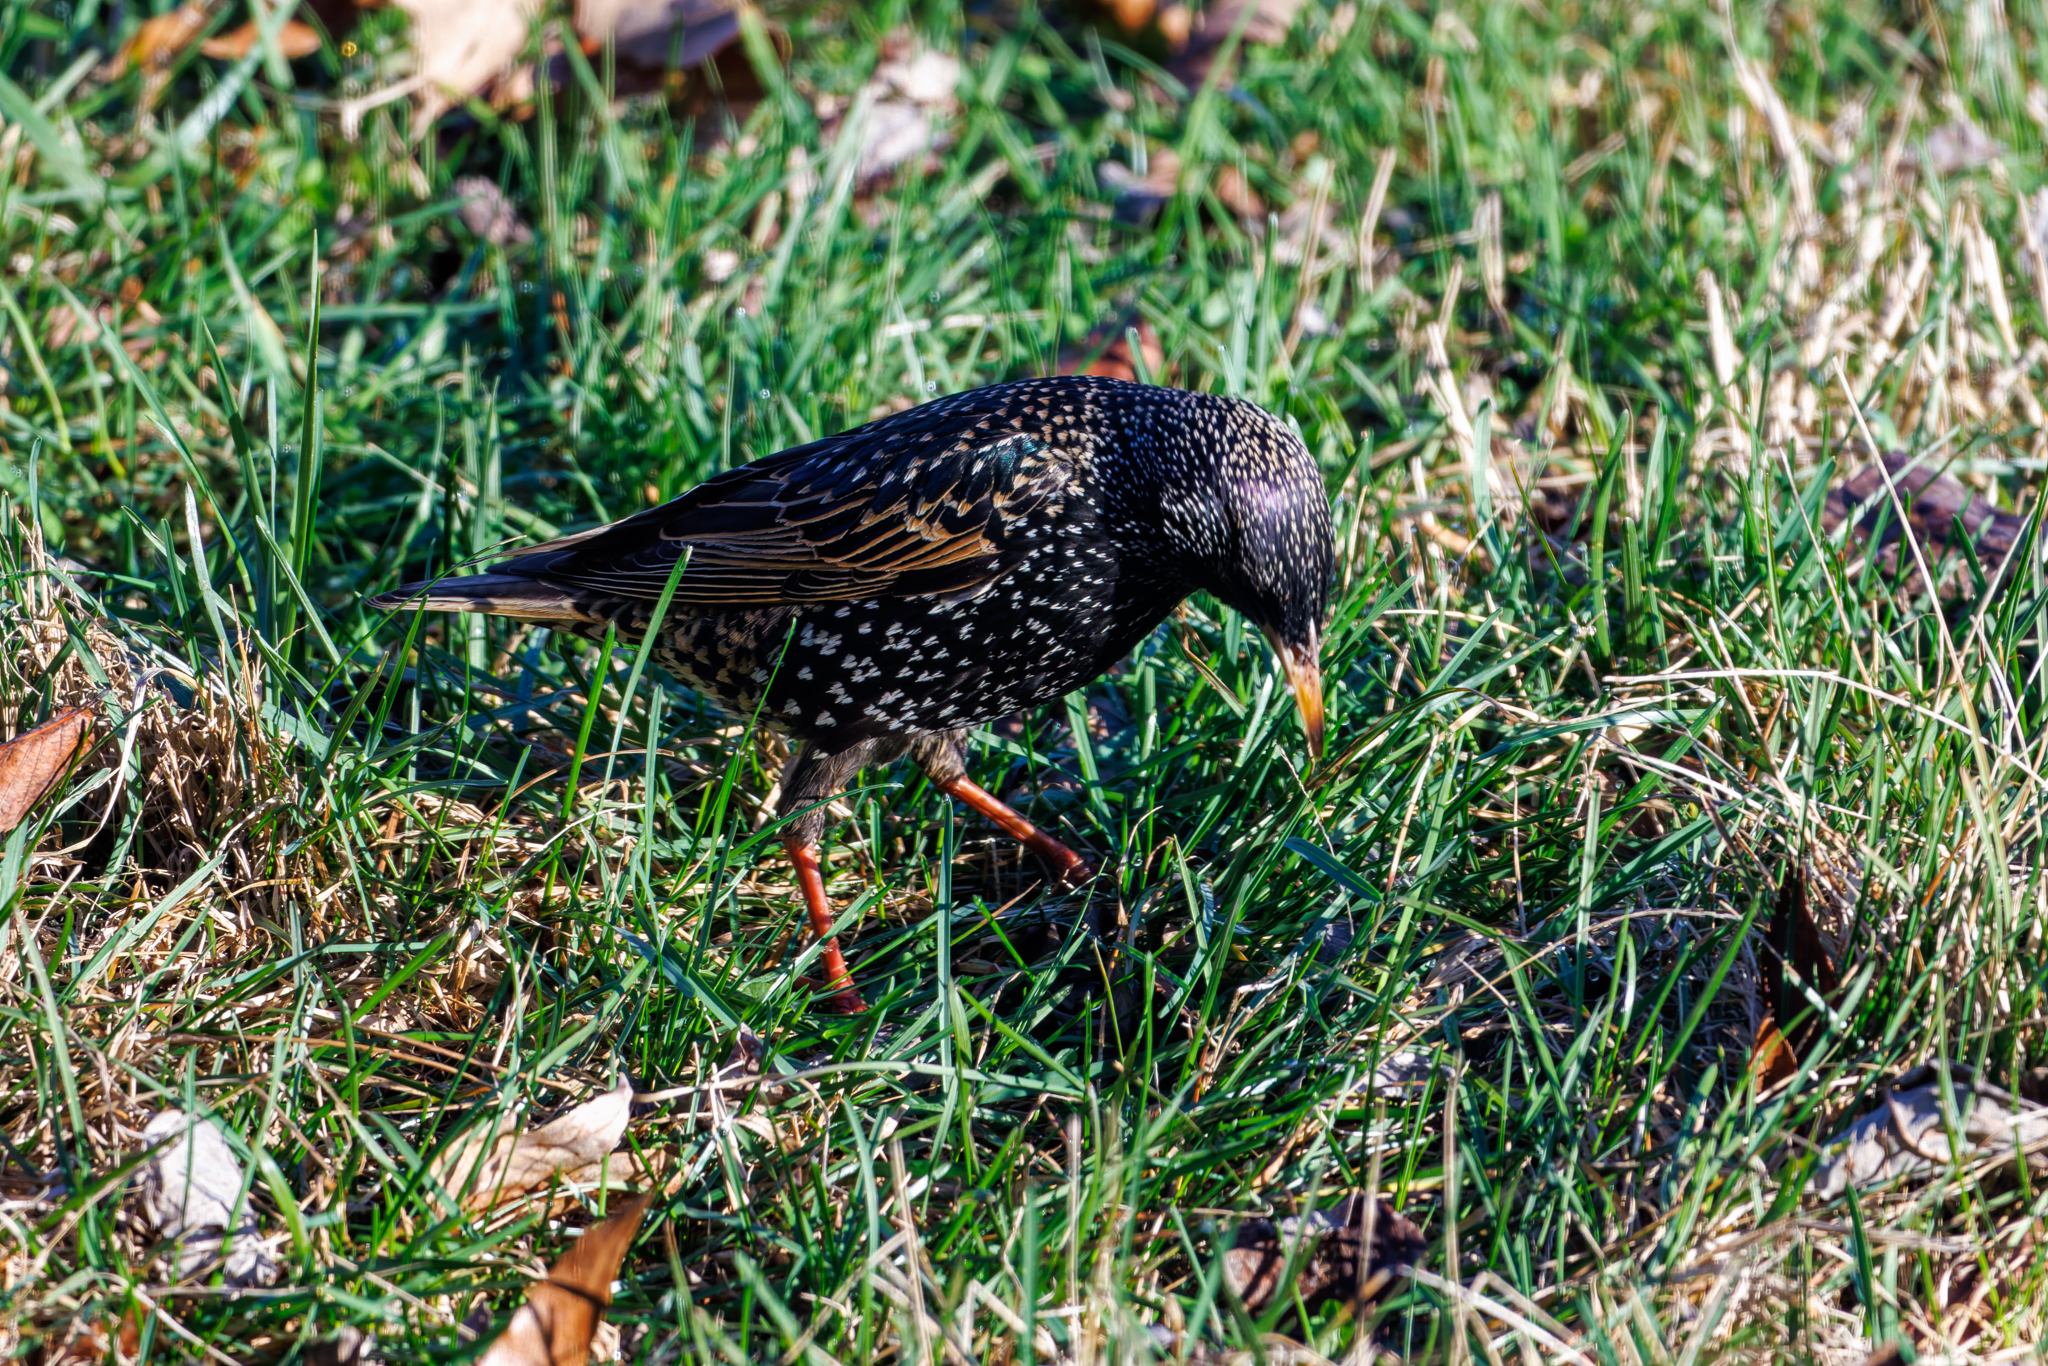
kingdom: Animalia
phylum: Chordata
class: Aves
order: Passeriformes
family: Sturnidae
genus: Sturnus
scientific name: Sturnus vulgaris
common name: Common starling
